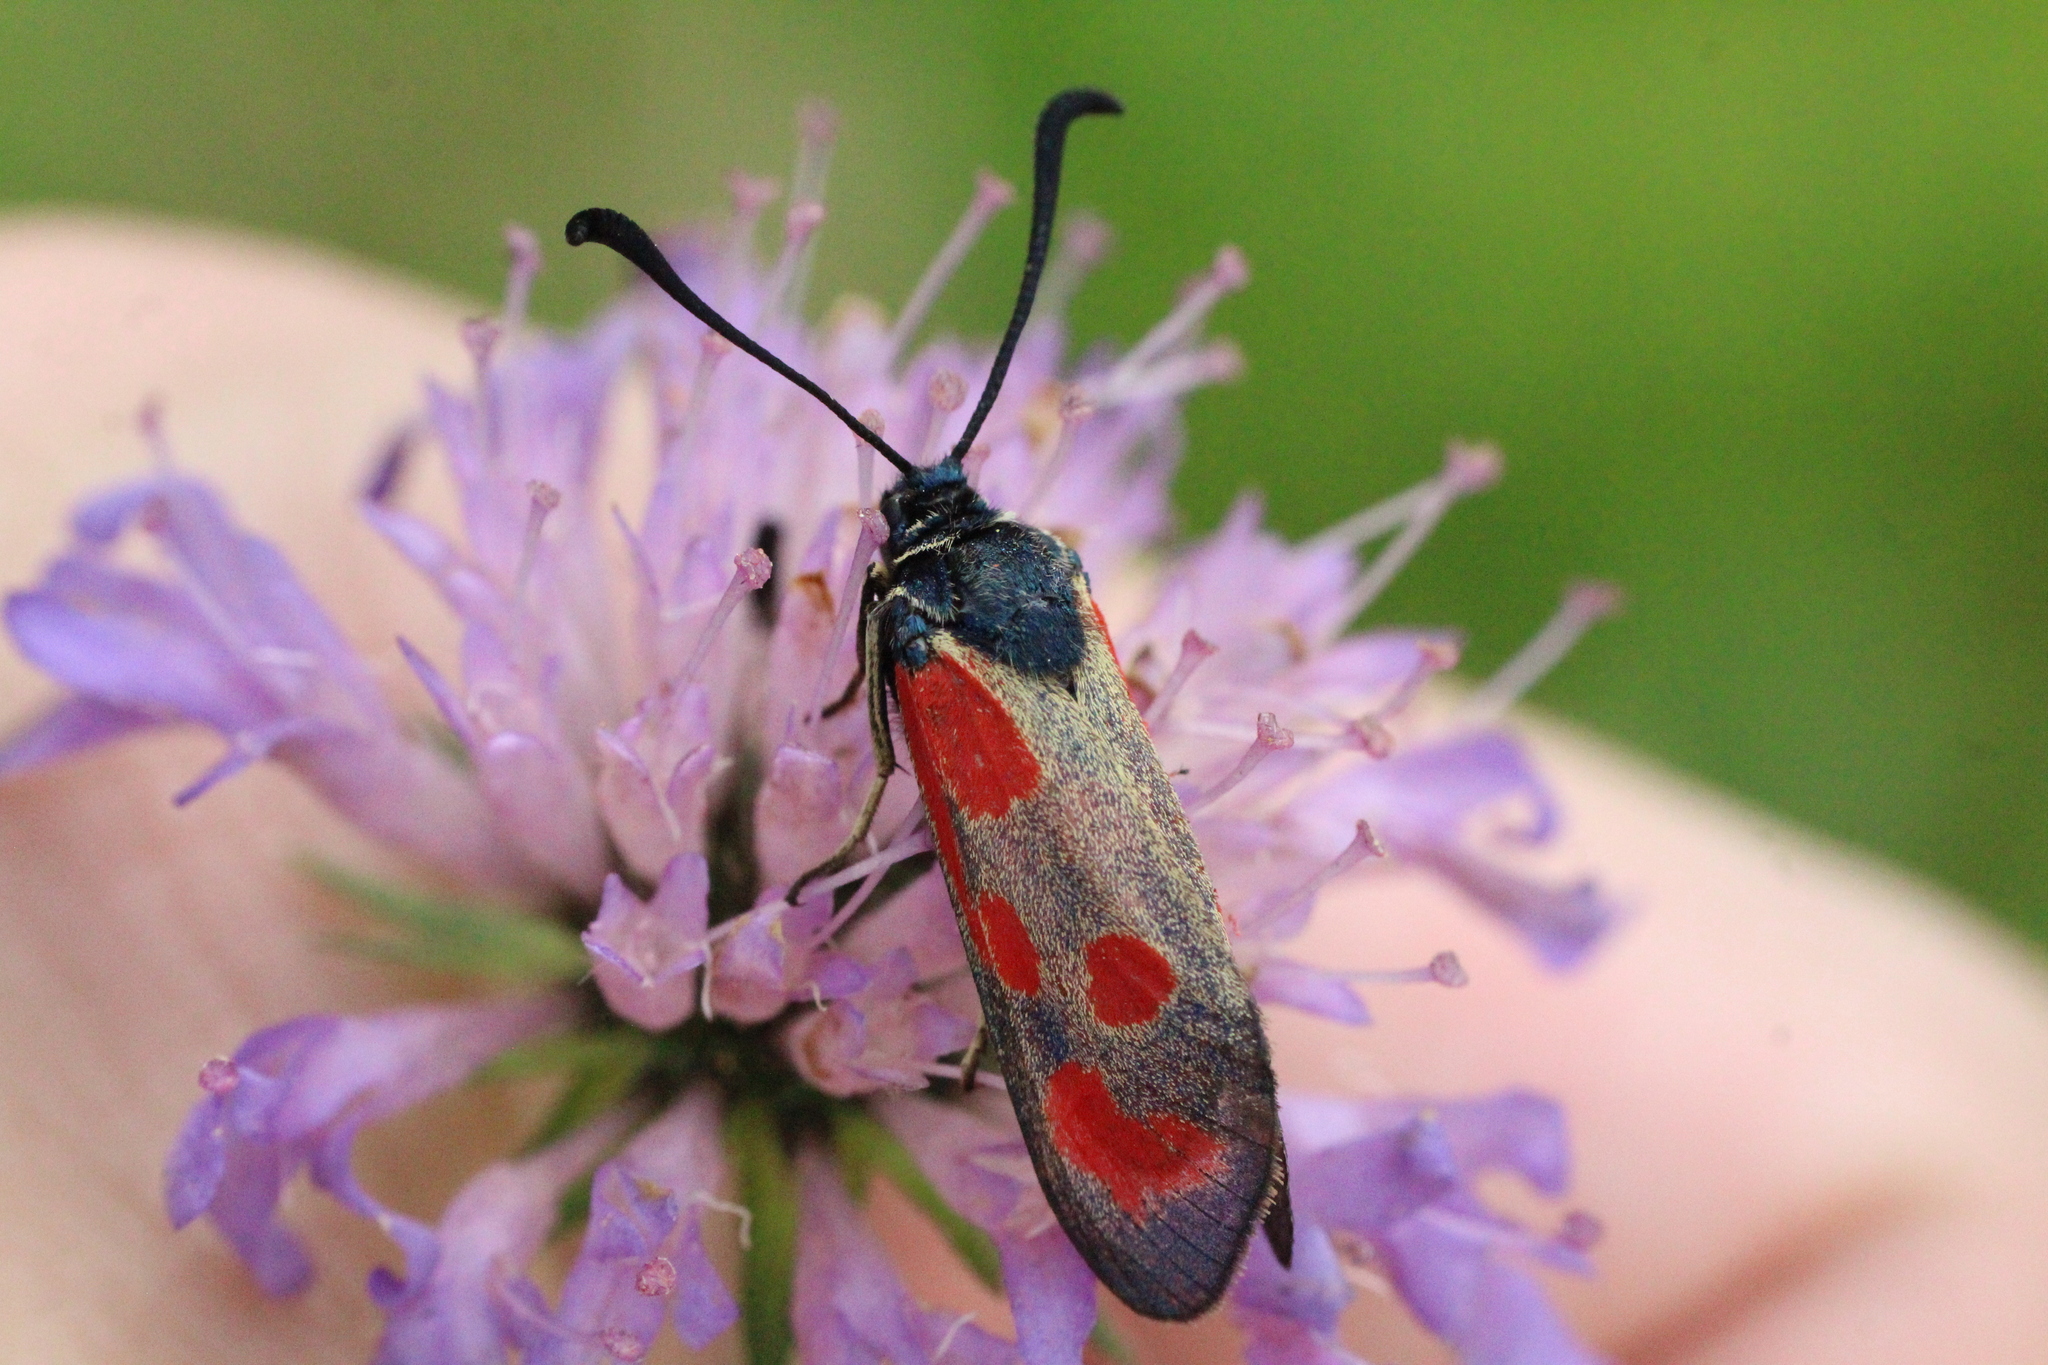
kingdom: Animalia
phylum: Arthropoda
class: Insecta
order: Lepidoptera
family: Zygaenidae
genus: Zygaena
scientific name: Zygaena loti
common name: Slender scotch burnet
